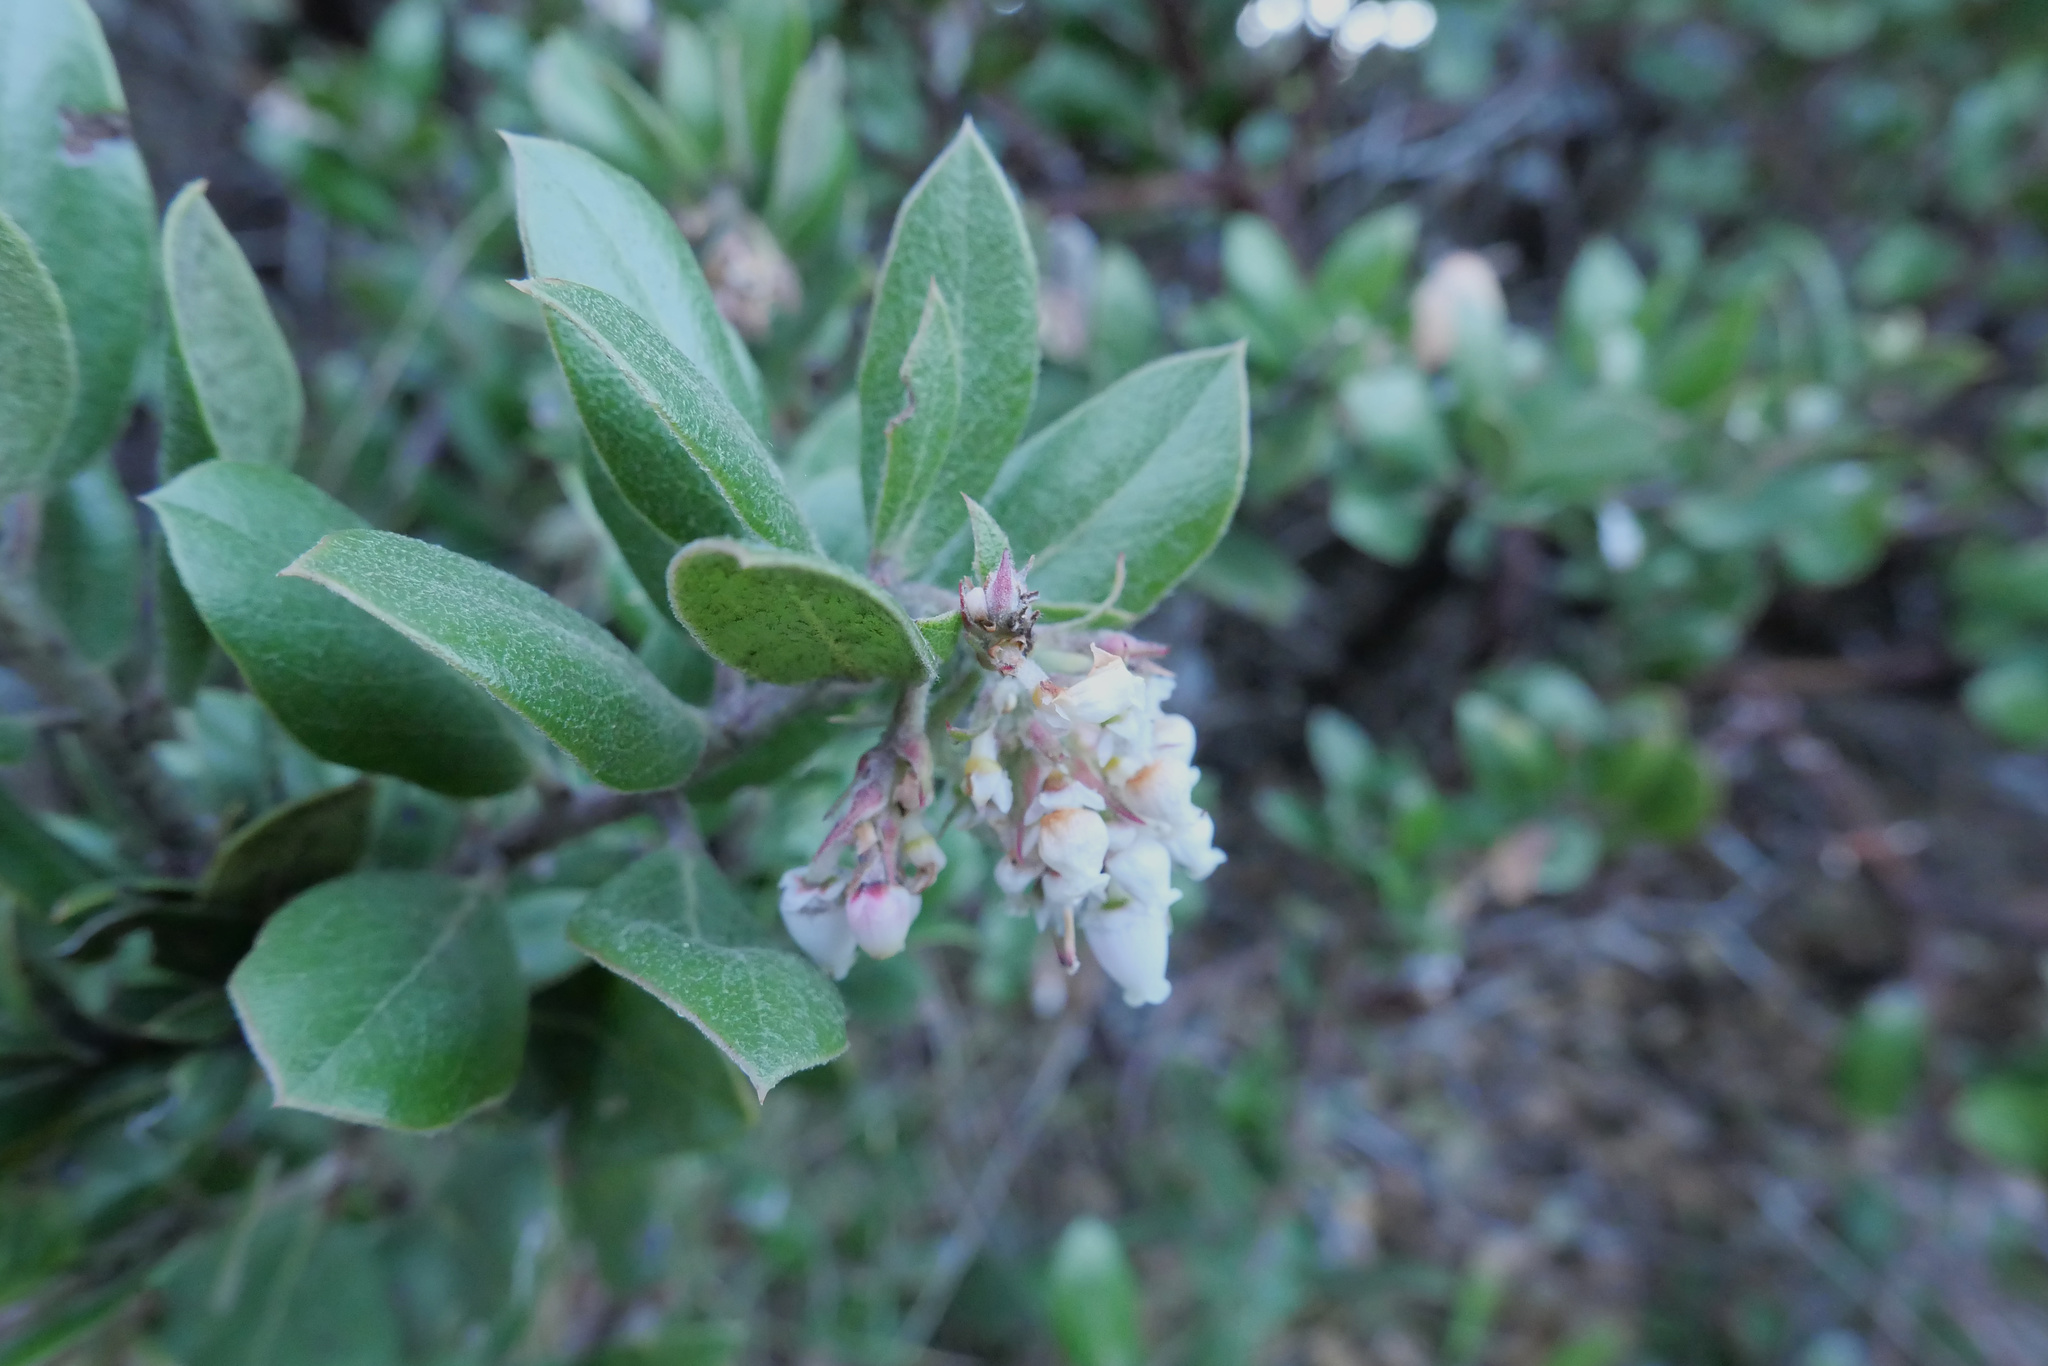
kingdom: Plantae
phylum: Tracheophyta
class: Magnoliopsida
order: Ericales
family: Ericaceae
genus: Arctostaphylos
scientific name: Arctostaphylos tomentosa
